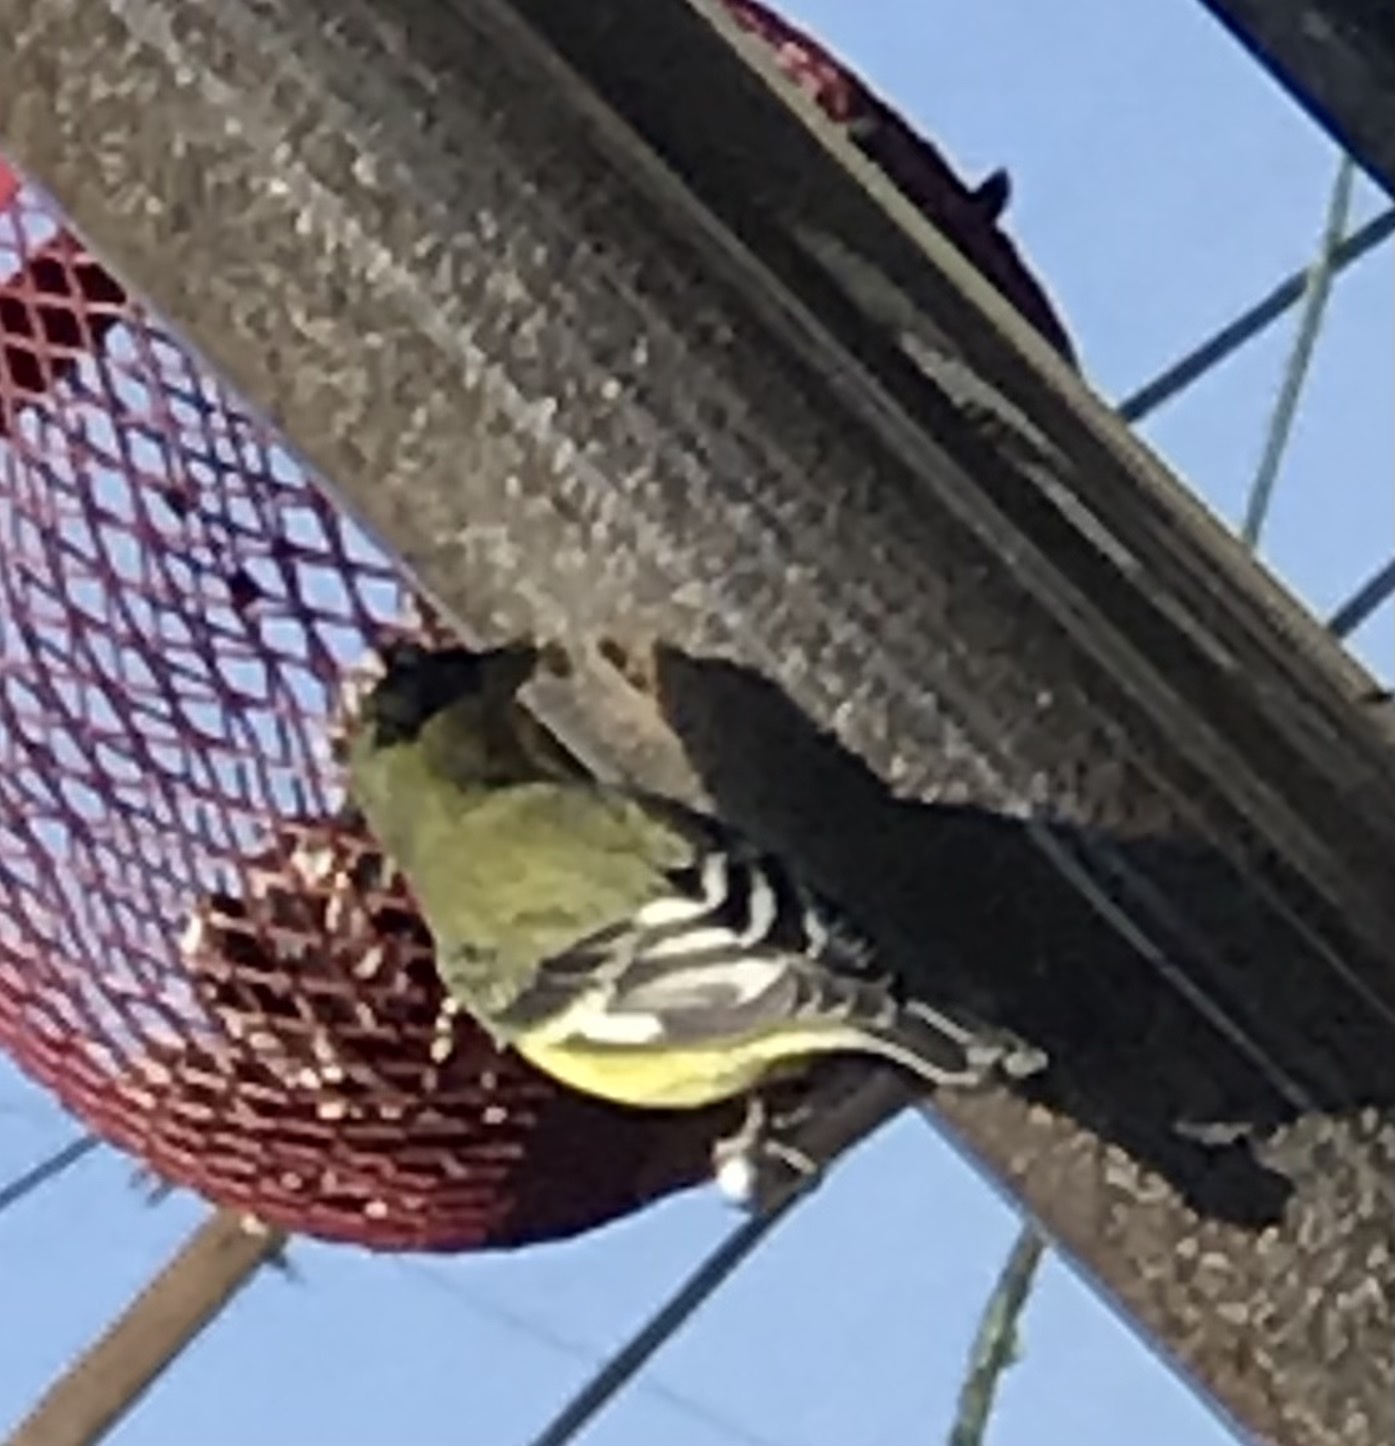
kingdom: Animalia
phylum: Chordata
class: Aves
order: Passeriformes
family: Fringillidae
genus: Spinus
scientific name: Spinus psaltria
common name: Lesser goldfinch
